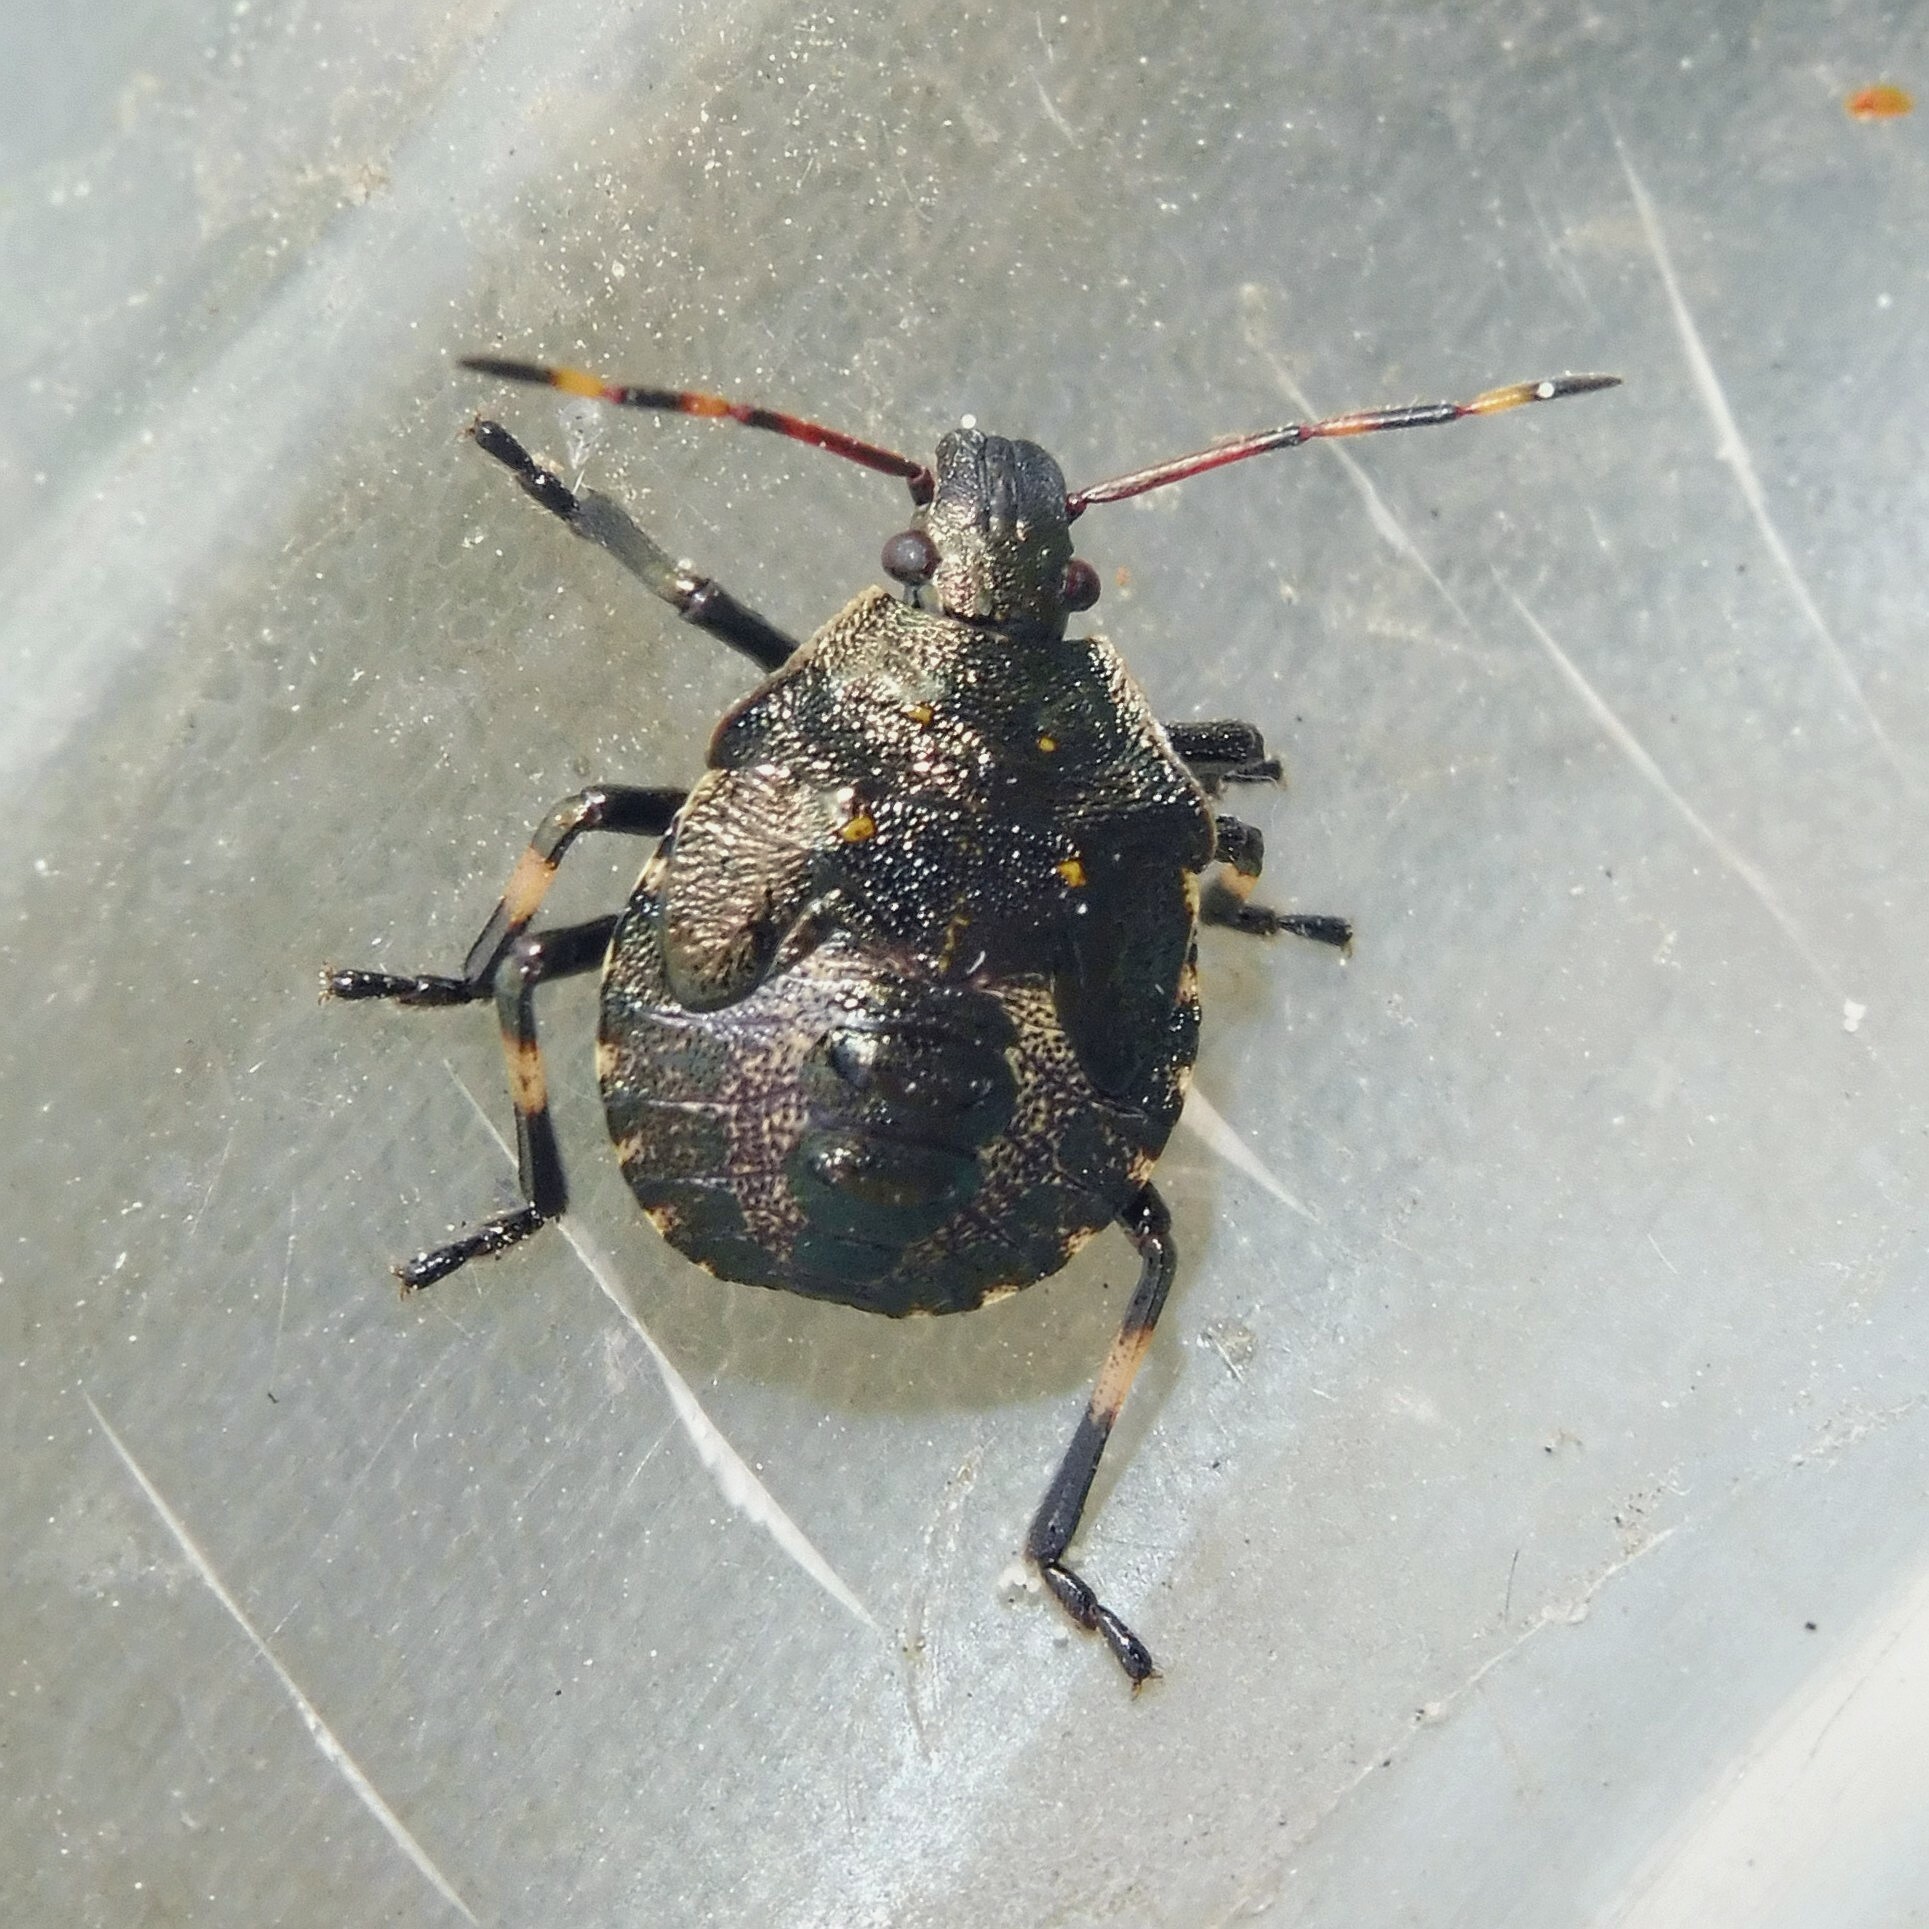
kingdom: Animalia
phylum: Arthropoda
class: Insecta
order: Hemiptera
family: Pentatomidae
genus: Picromerus
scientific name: Picromerus bidens
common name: Spiked shieldbug
